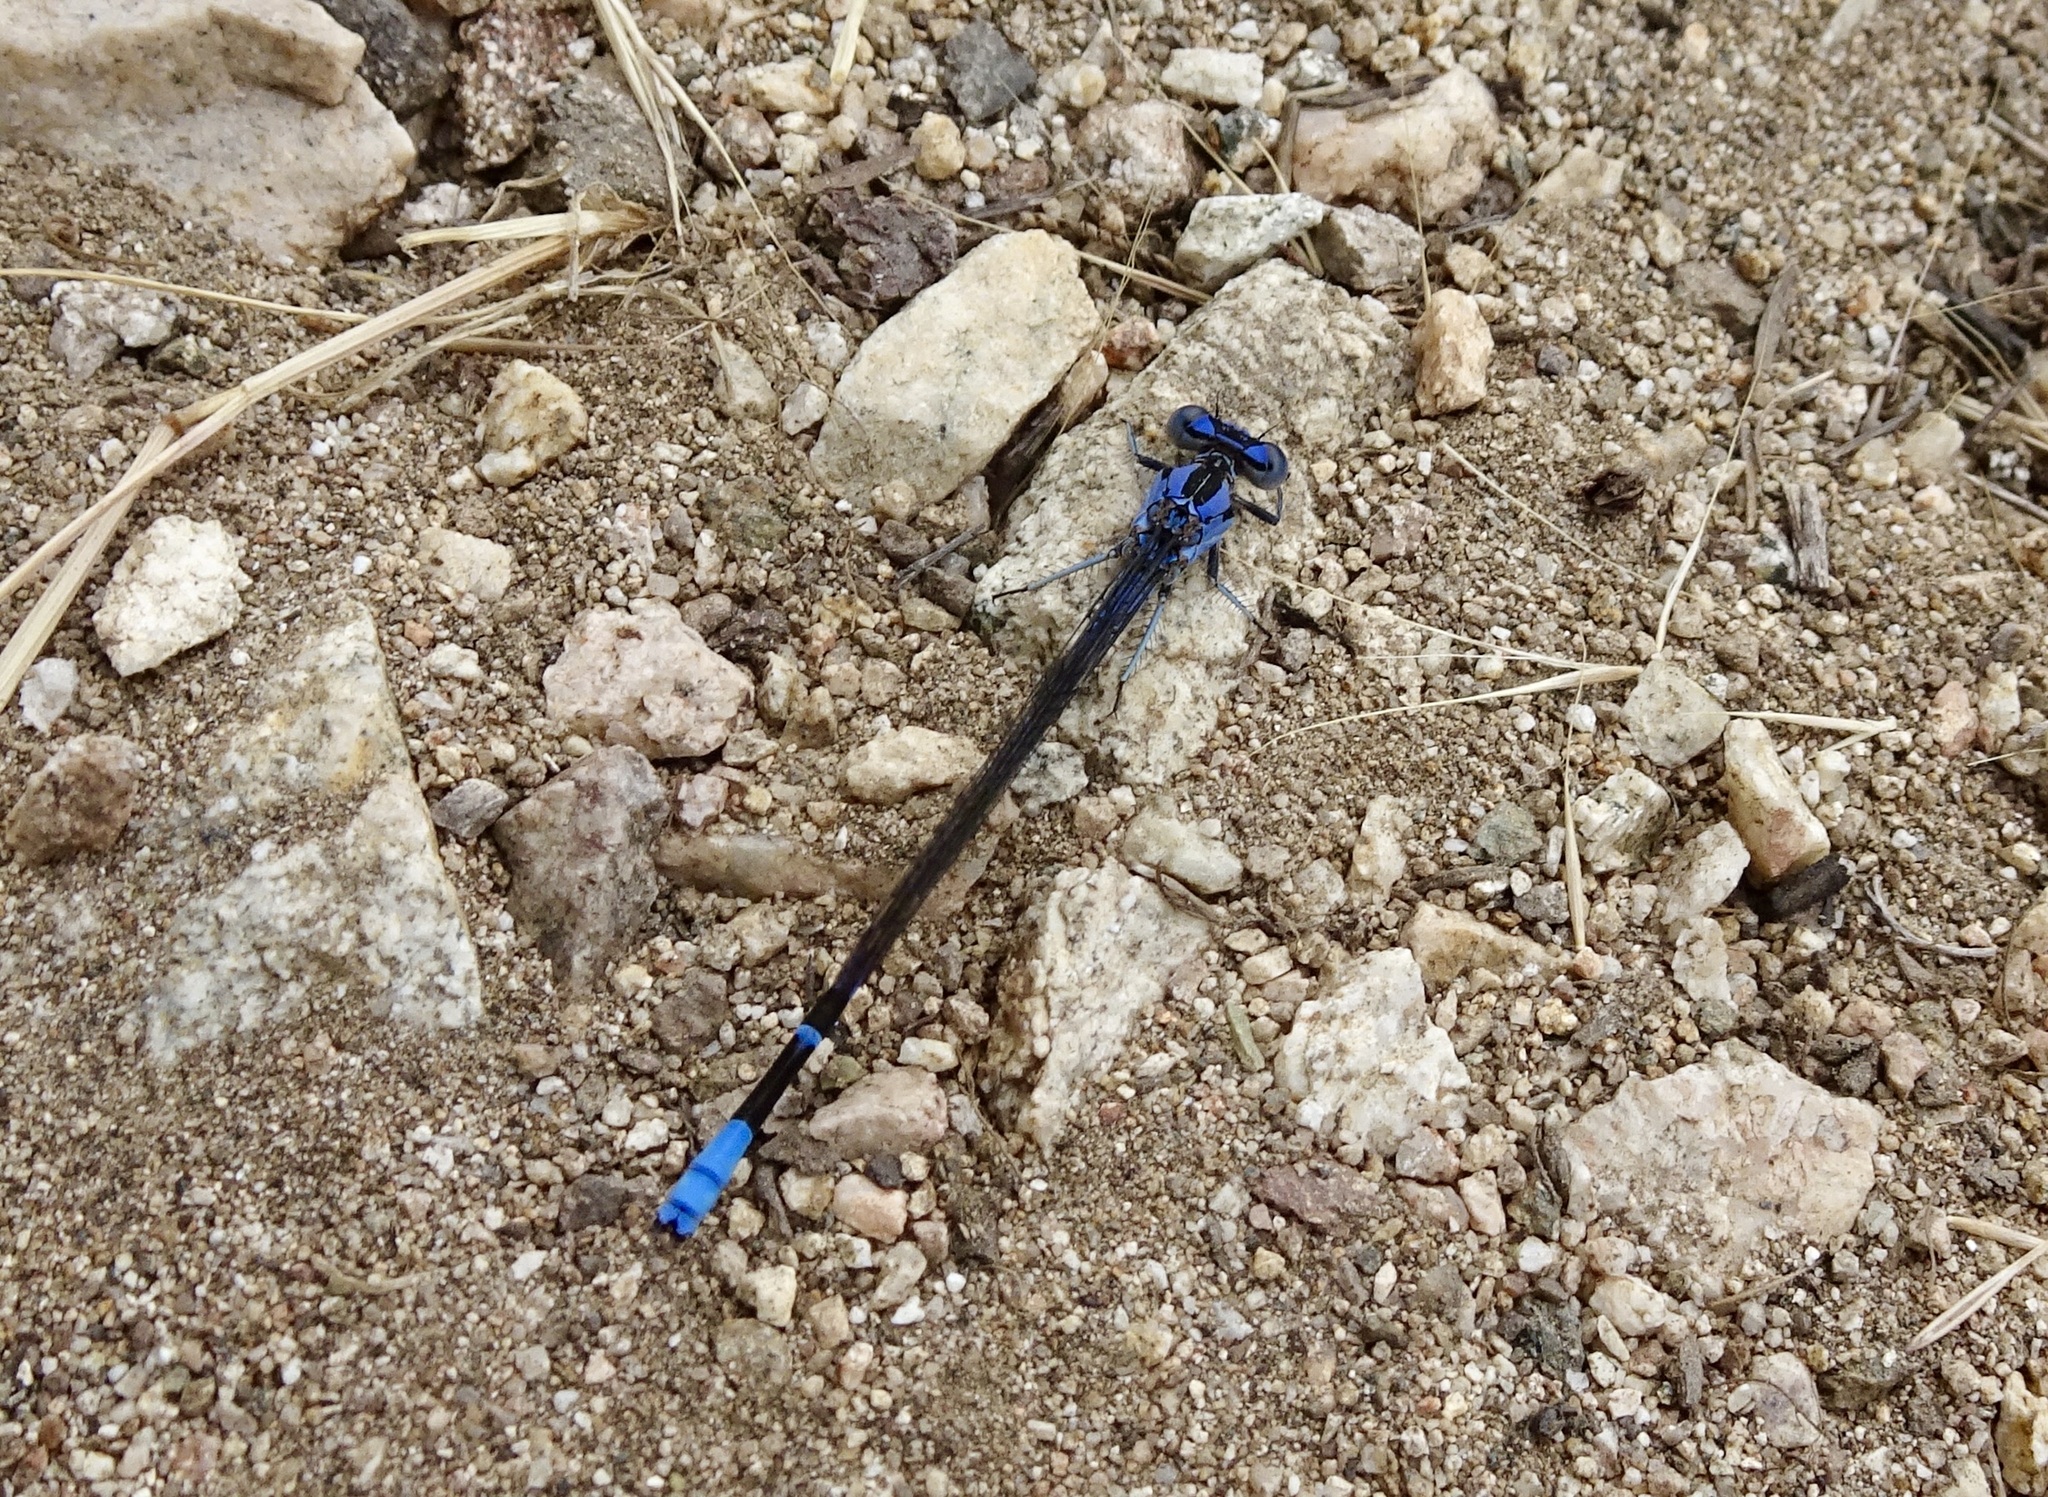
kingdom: Animalia
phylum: Arthropoda
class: Insecta
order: Odonata
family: Coenagrionidae
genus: Argia
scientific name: Argia vivida
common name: Vivid dancer
